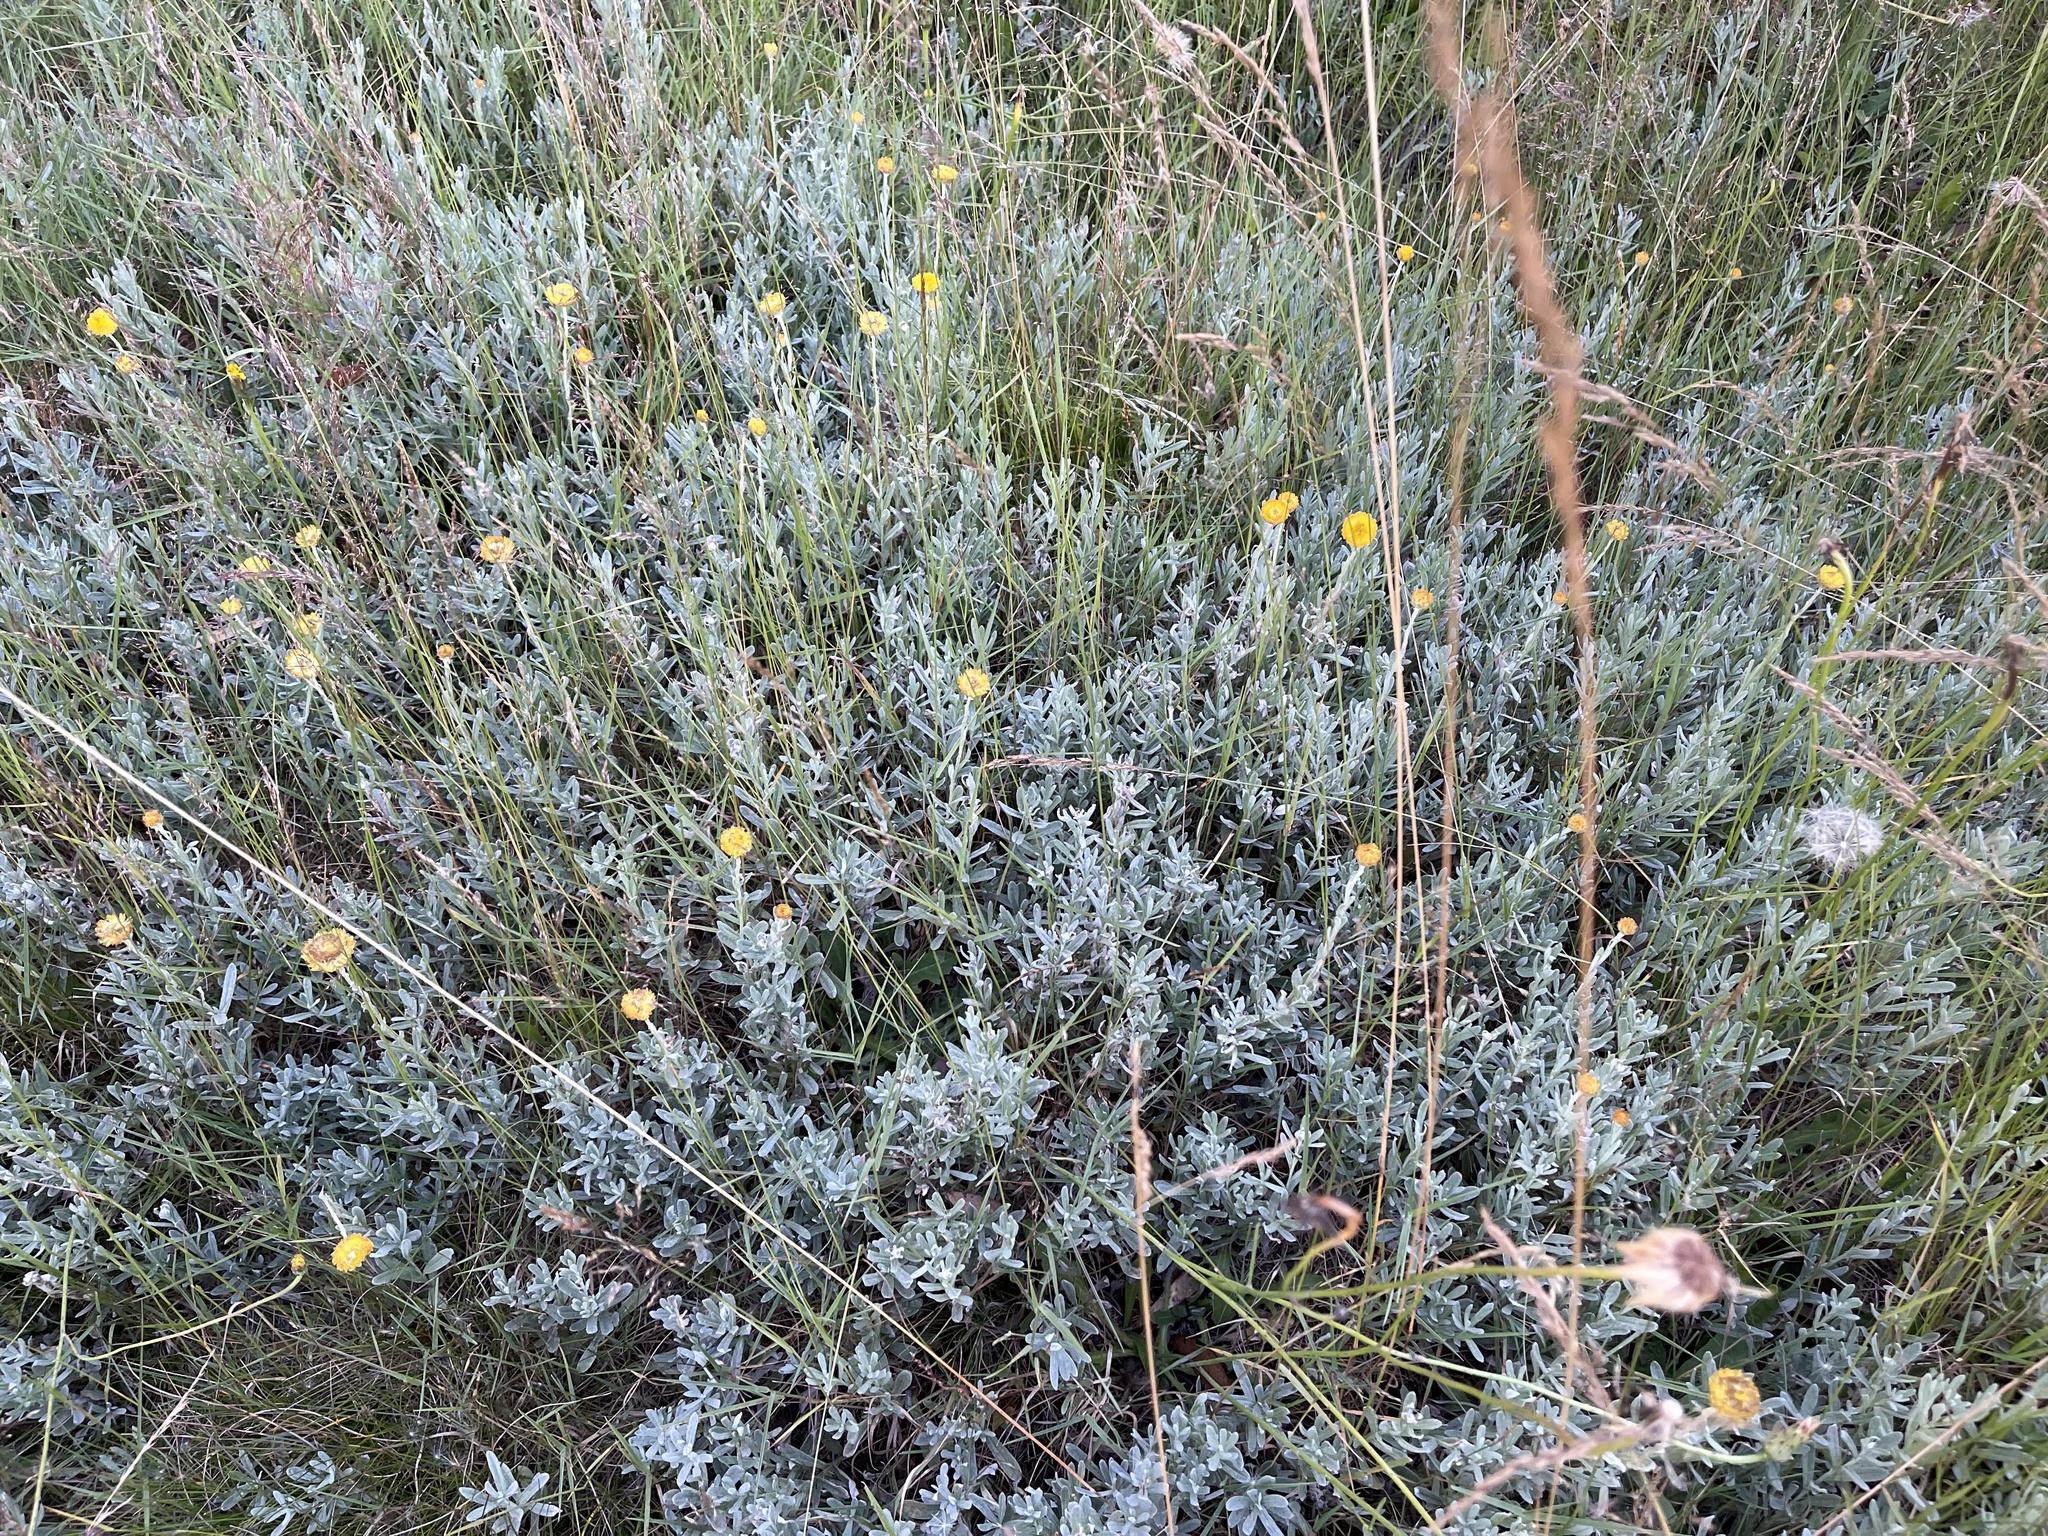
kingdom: Plantae
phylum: Tracheophyta
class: Magnoliopsida
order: Asterales
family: Asteraceae
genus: Coronidium
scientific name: Coronidium monticola
